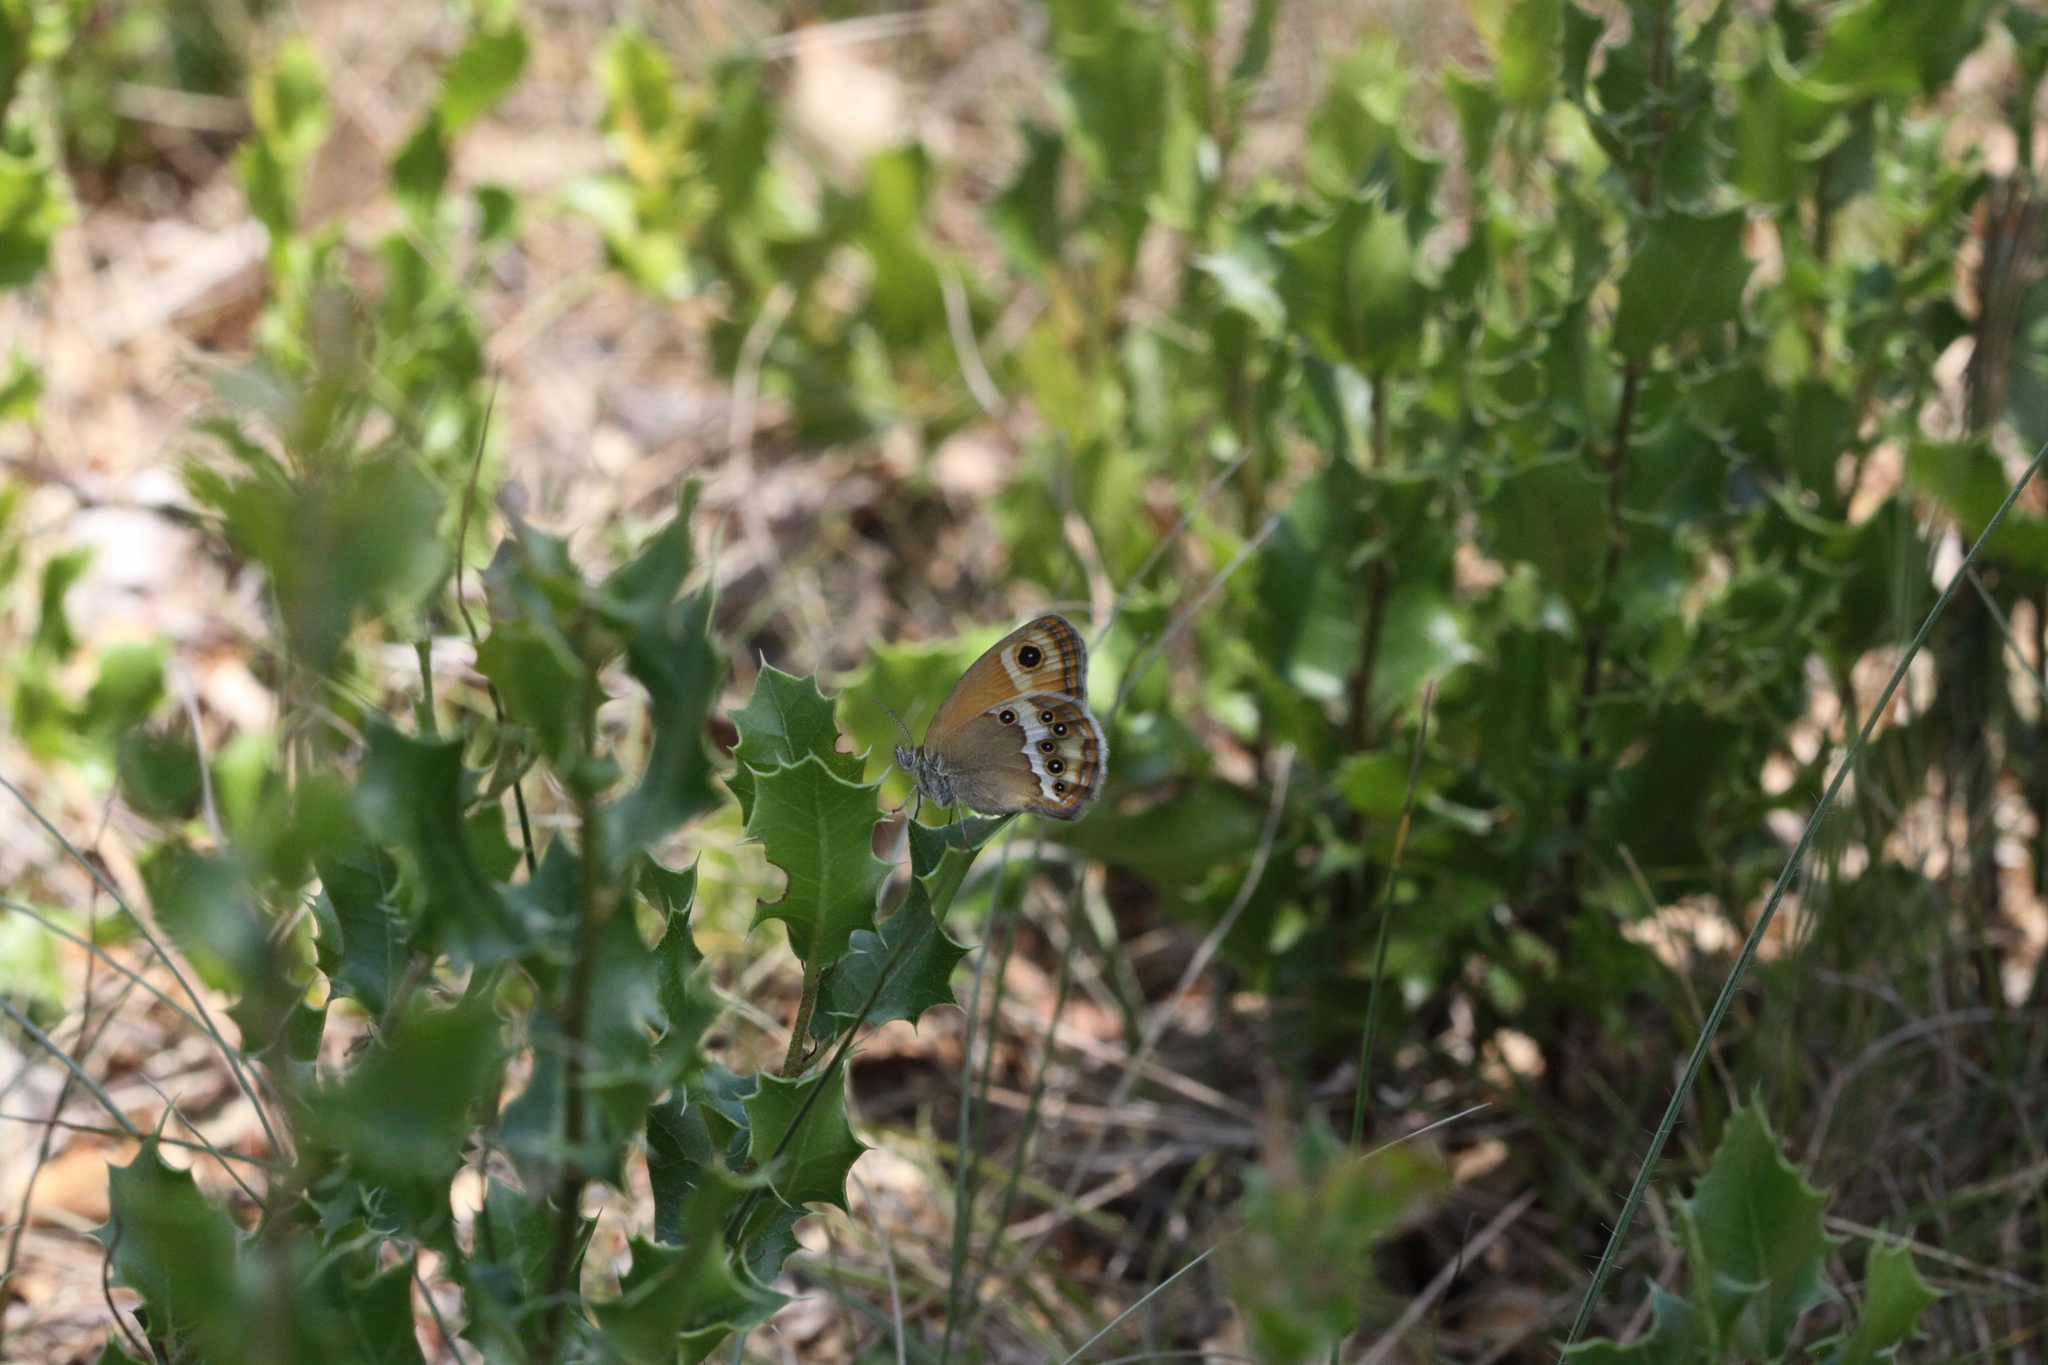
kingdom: Animalia
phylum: Arthropoda
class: Insecta
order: Lepidoptera
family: Nymphalidae
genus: Coenonympha
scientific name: Coenonympha dorus
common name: Dusky heath
